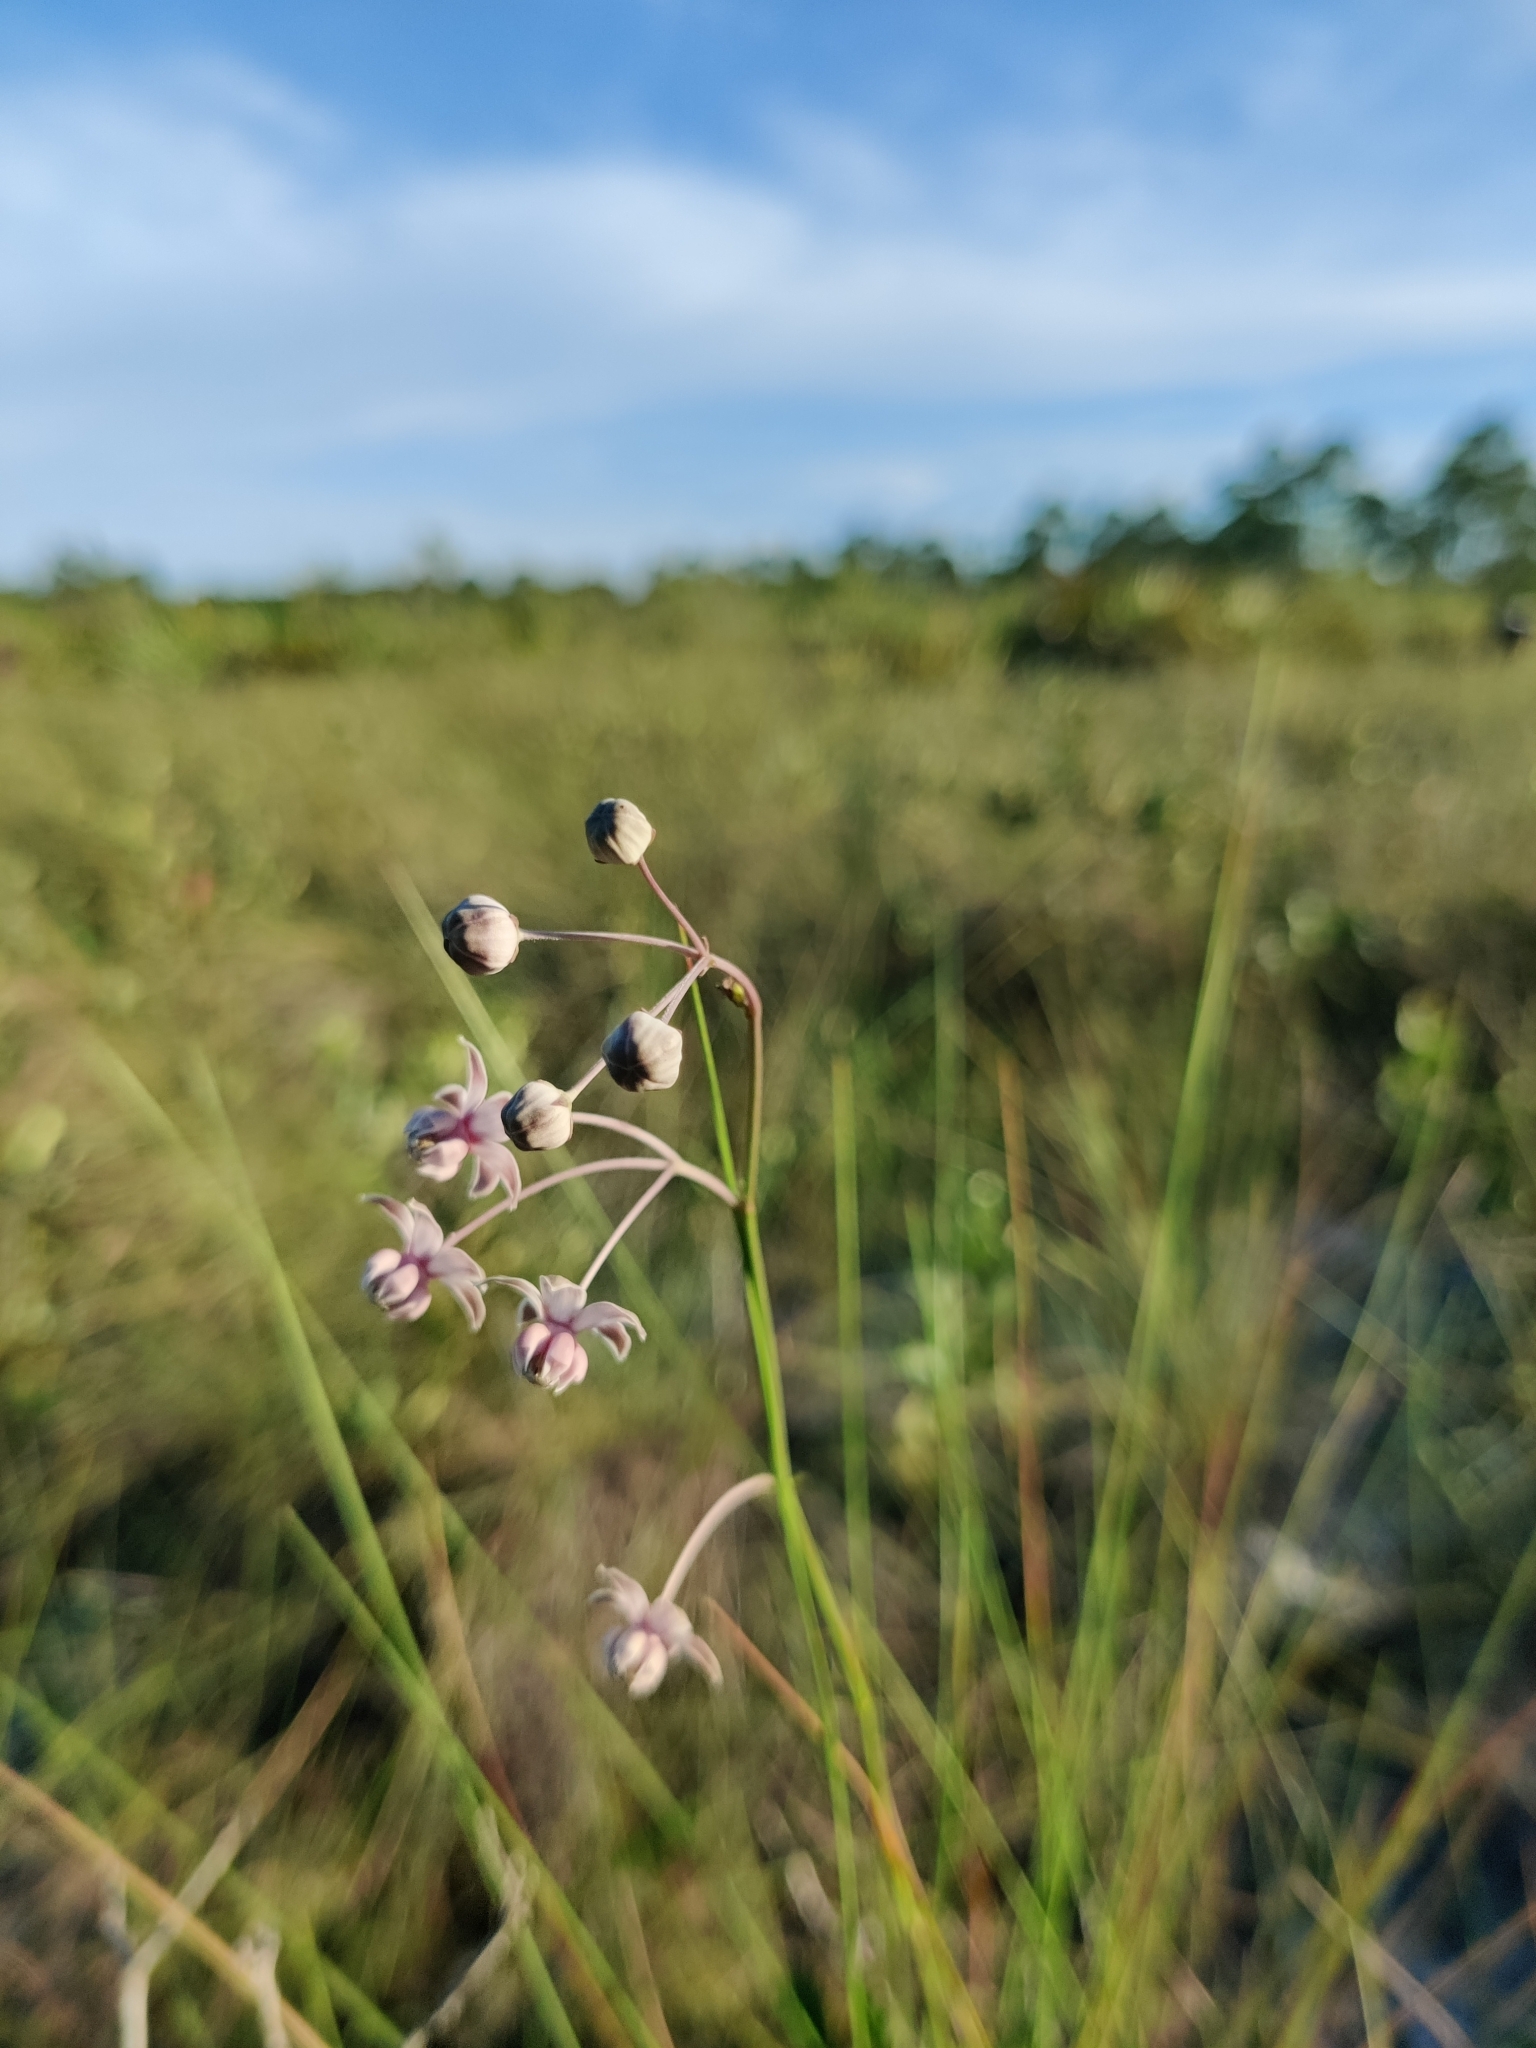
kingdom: Plantae
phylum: Tracheophyta
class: Magnoliopsida
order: Gentianales
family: Apocynaceae
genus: Asclepias
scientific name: Asclepias cinerea
